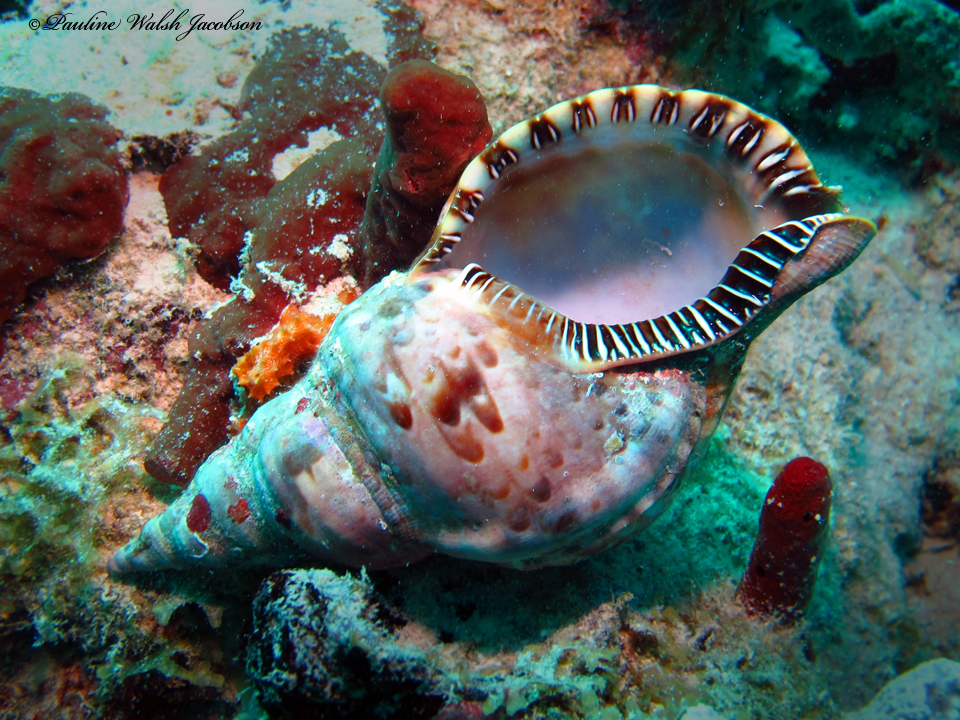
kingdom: Animalia
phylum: Mollusca
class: Gastropoda
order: Littorinimorpha
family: Charoniidae
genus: Charonia
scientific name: Charonia variegata
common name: Atlantic triton
